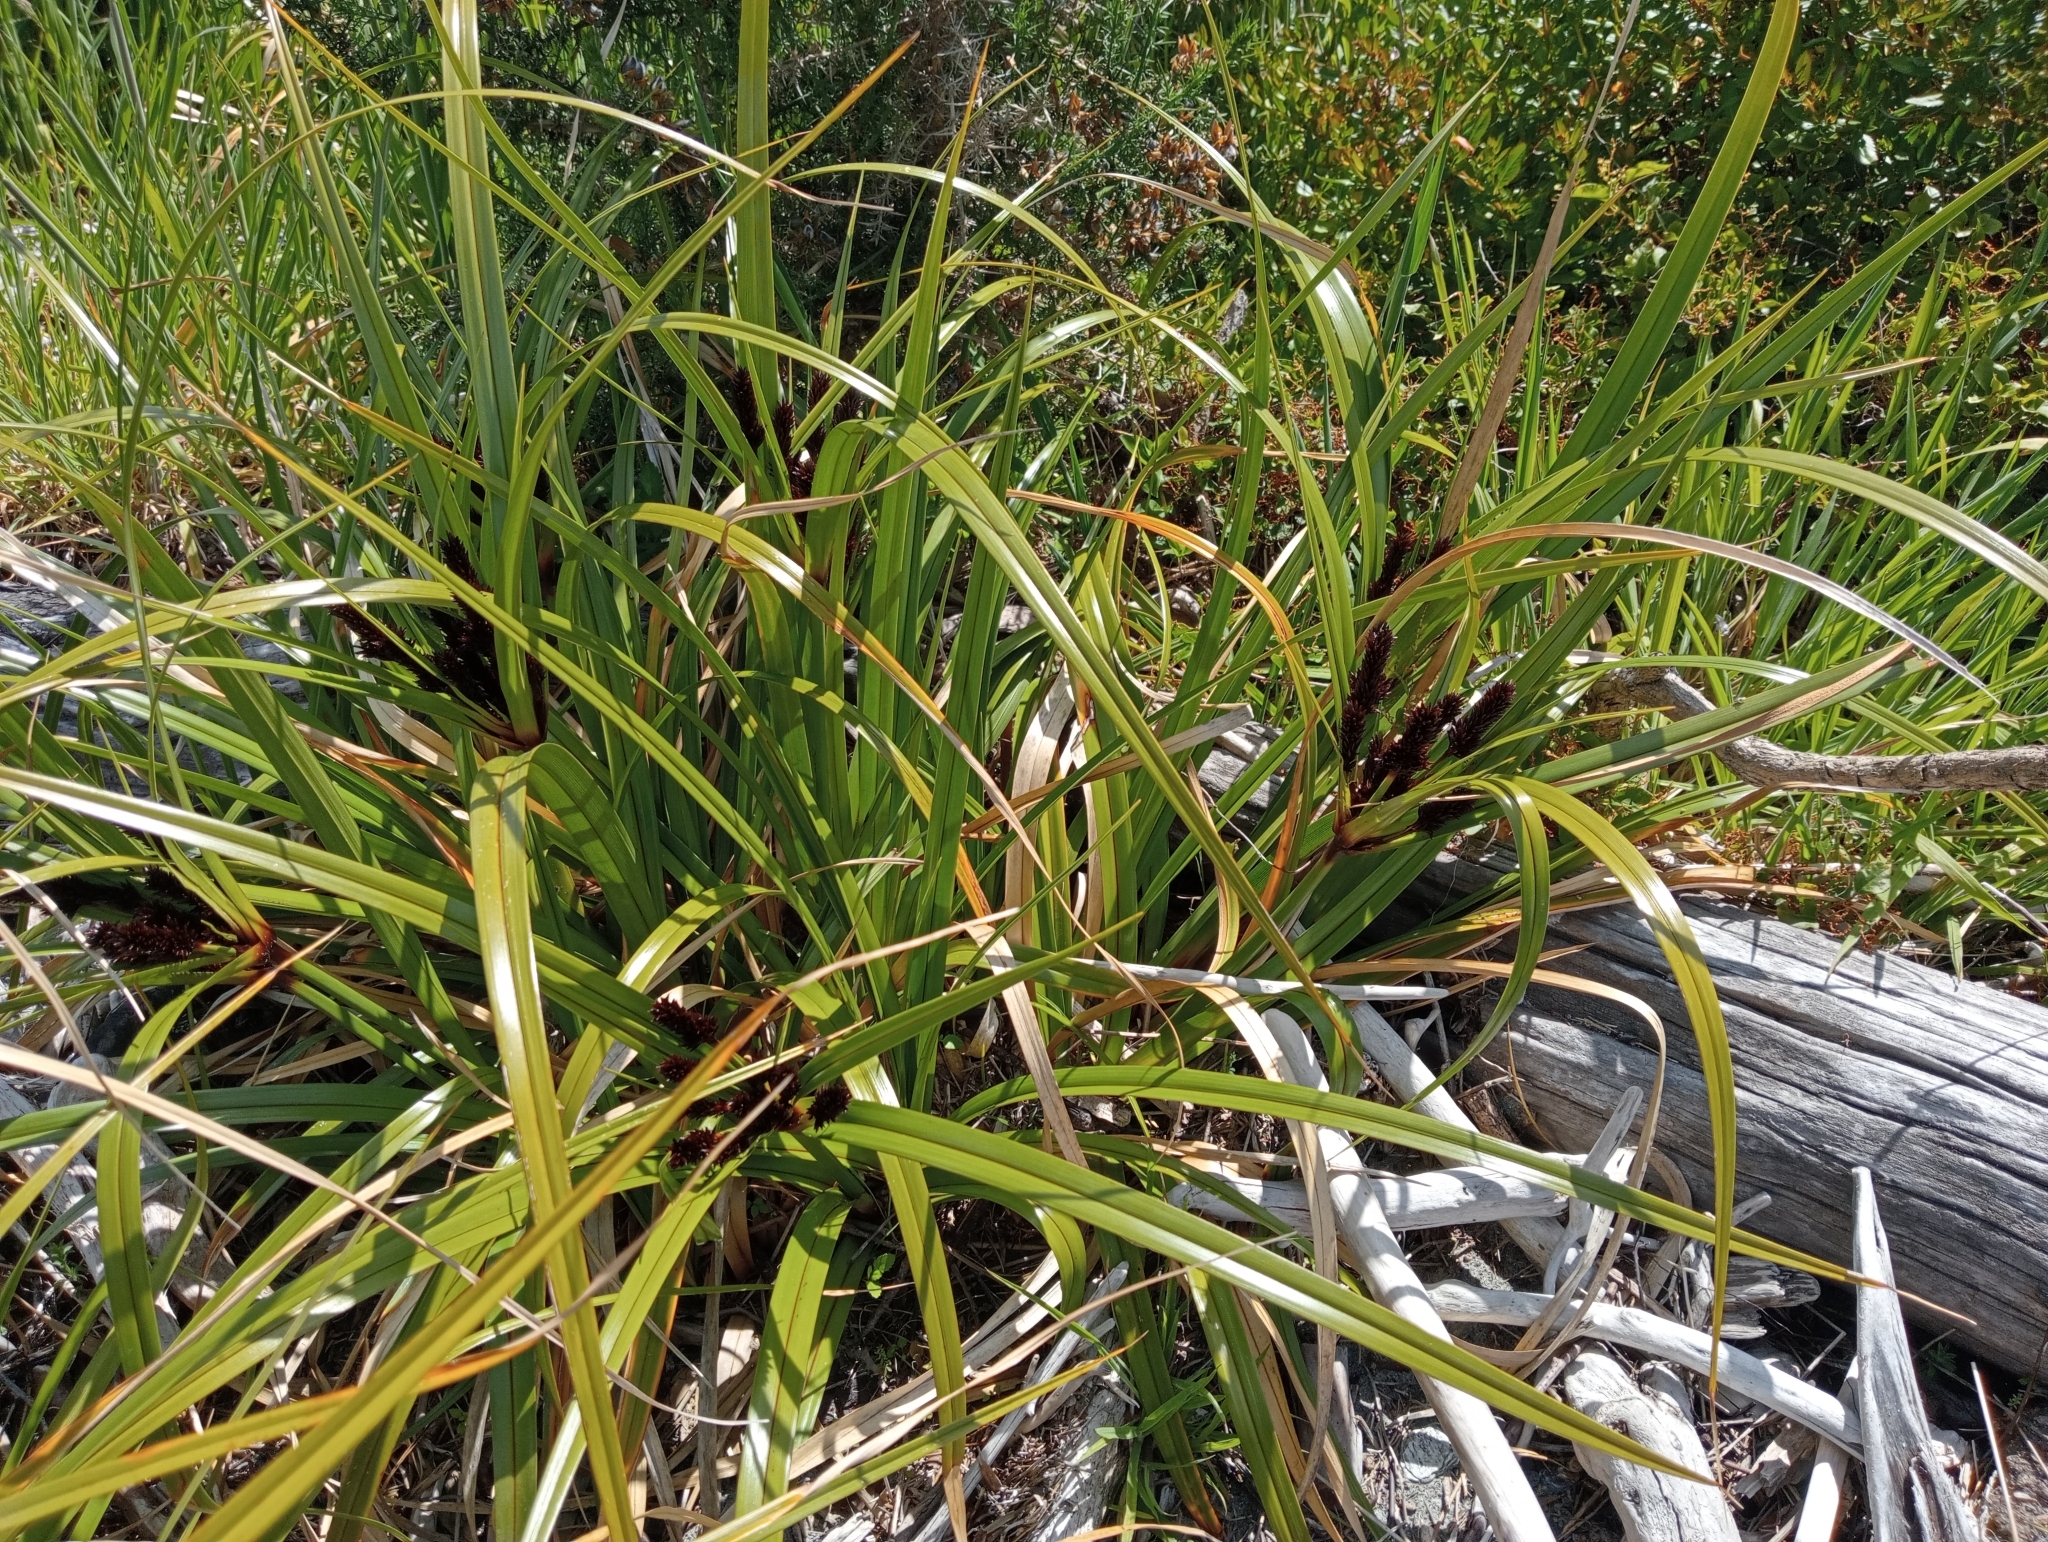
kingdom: Plantae
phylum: Tracheophyta
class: Liliopsida
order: Poales
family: Cyperaceae
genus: Cyperus
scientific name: Cyperus ustulatus
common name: Giant umbrella-sedge
